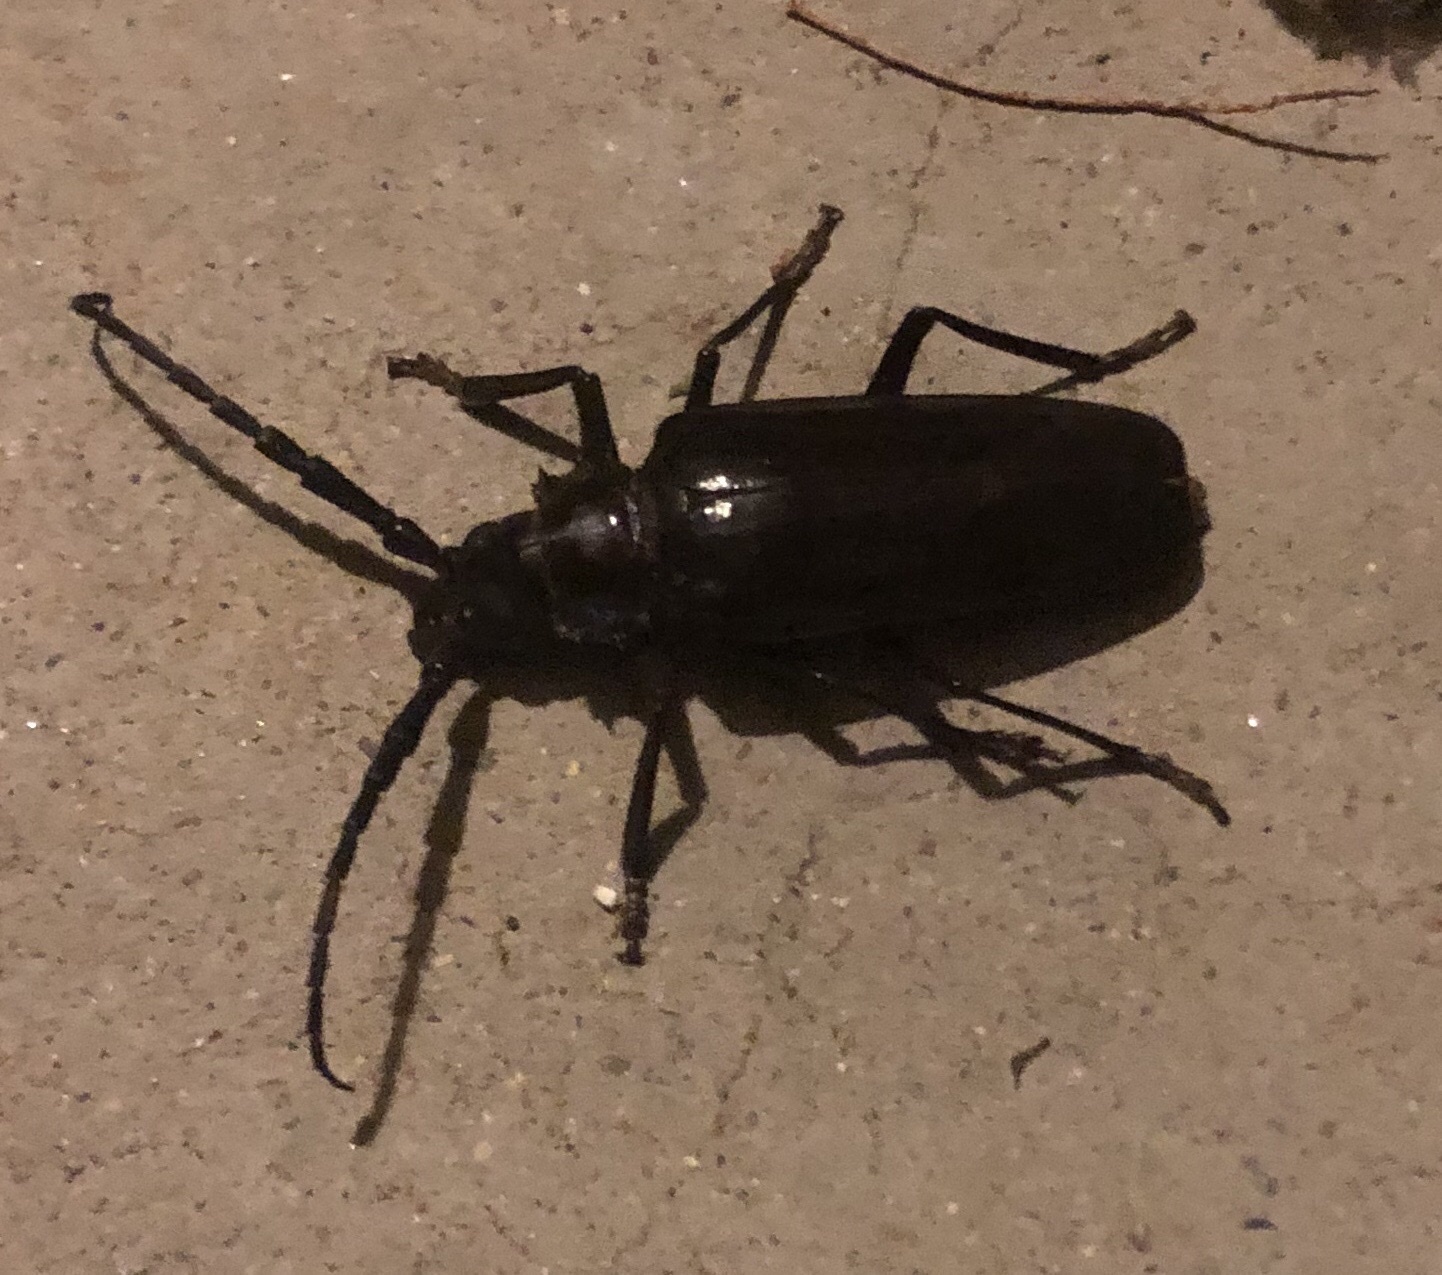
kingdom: Animalia
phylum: Arthropoda
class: Insecta
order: Coleoptera
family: Cerambycidae
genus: Derobrachus
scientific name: Derobrachus hovorei
